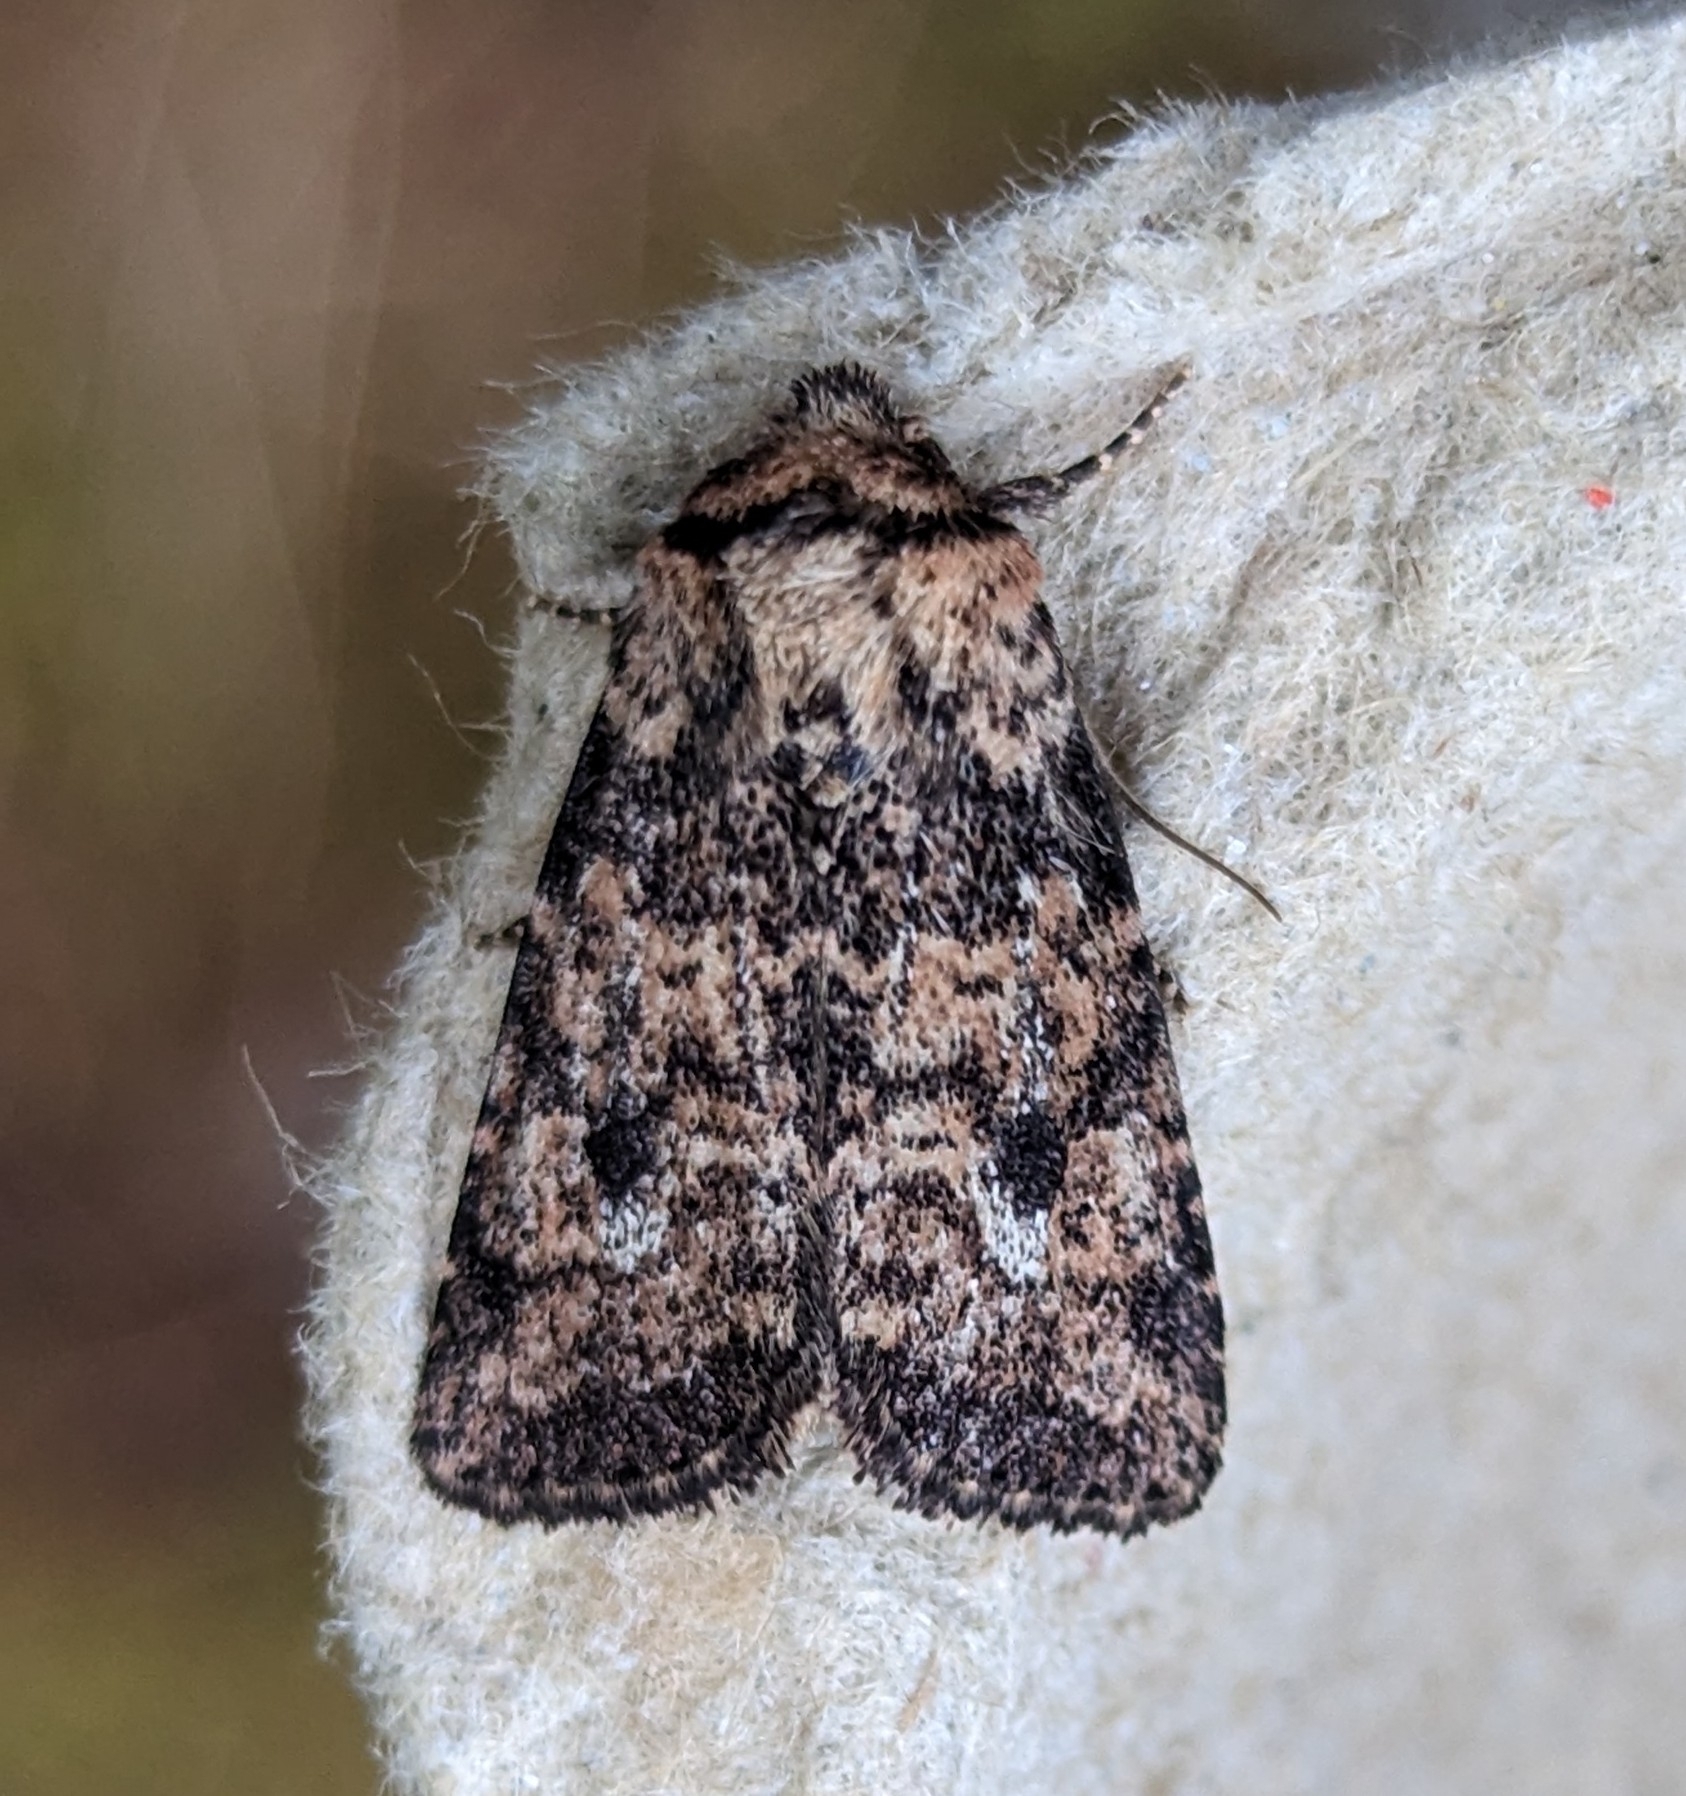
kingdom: Animalia
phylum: Arthropoda
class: Insecta
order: Lepidoptera
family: Noctuidae
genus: Homorthodes
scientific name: Homorthodes hanhami
